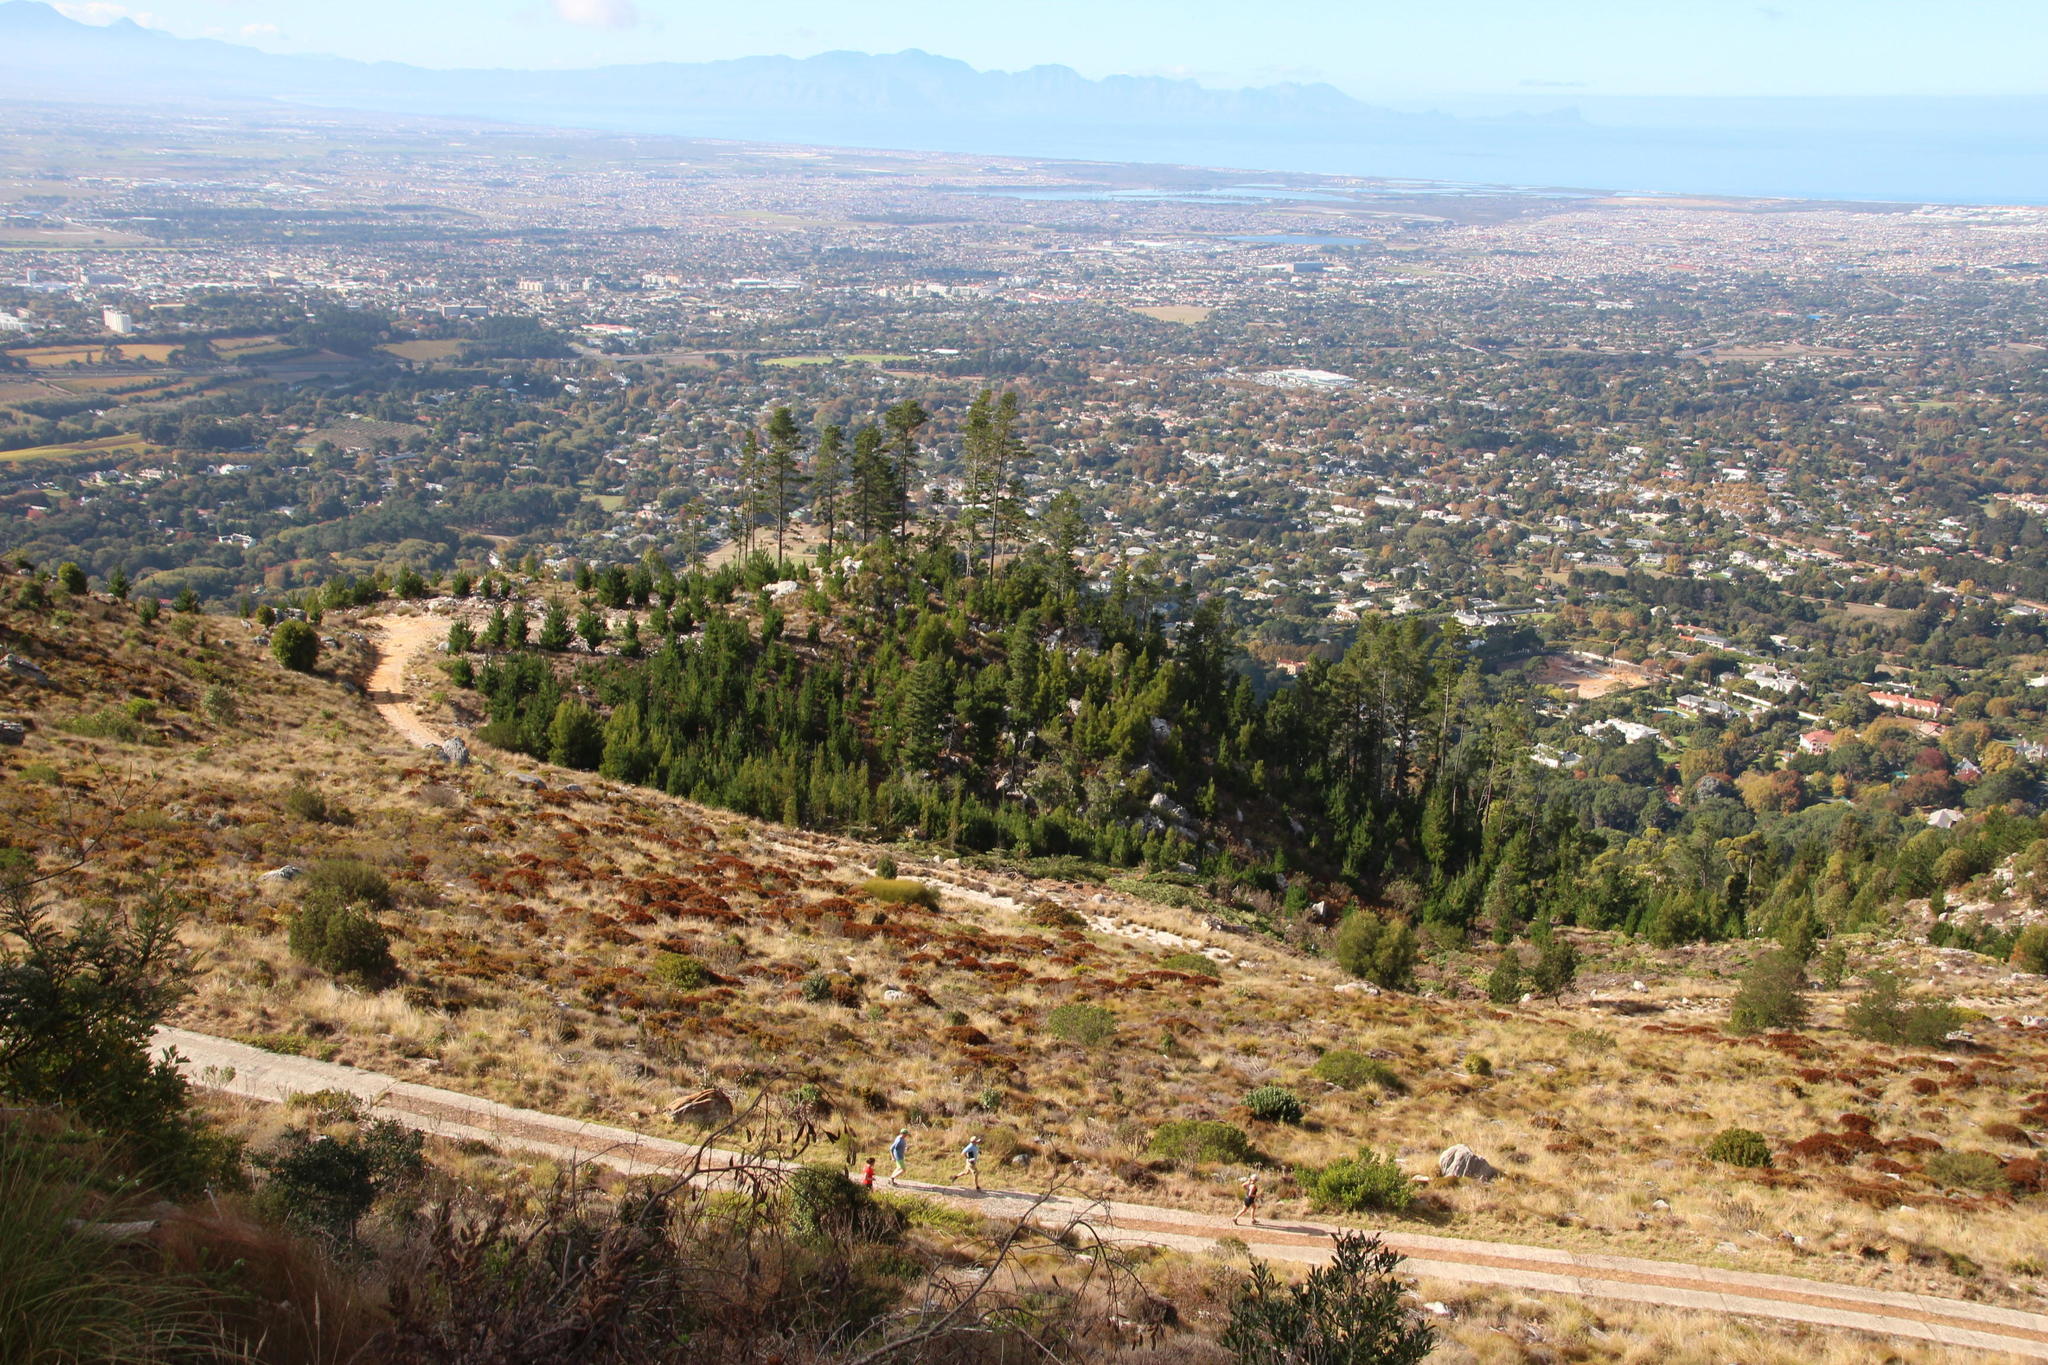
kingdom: Plantae
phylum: Tracheophyta
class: Pinopsida
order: Pinales
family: Pinaceae
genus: Pinus
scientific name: Pinus radiata
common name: Monterey pine
